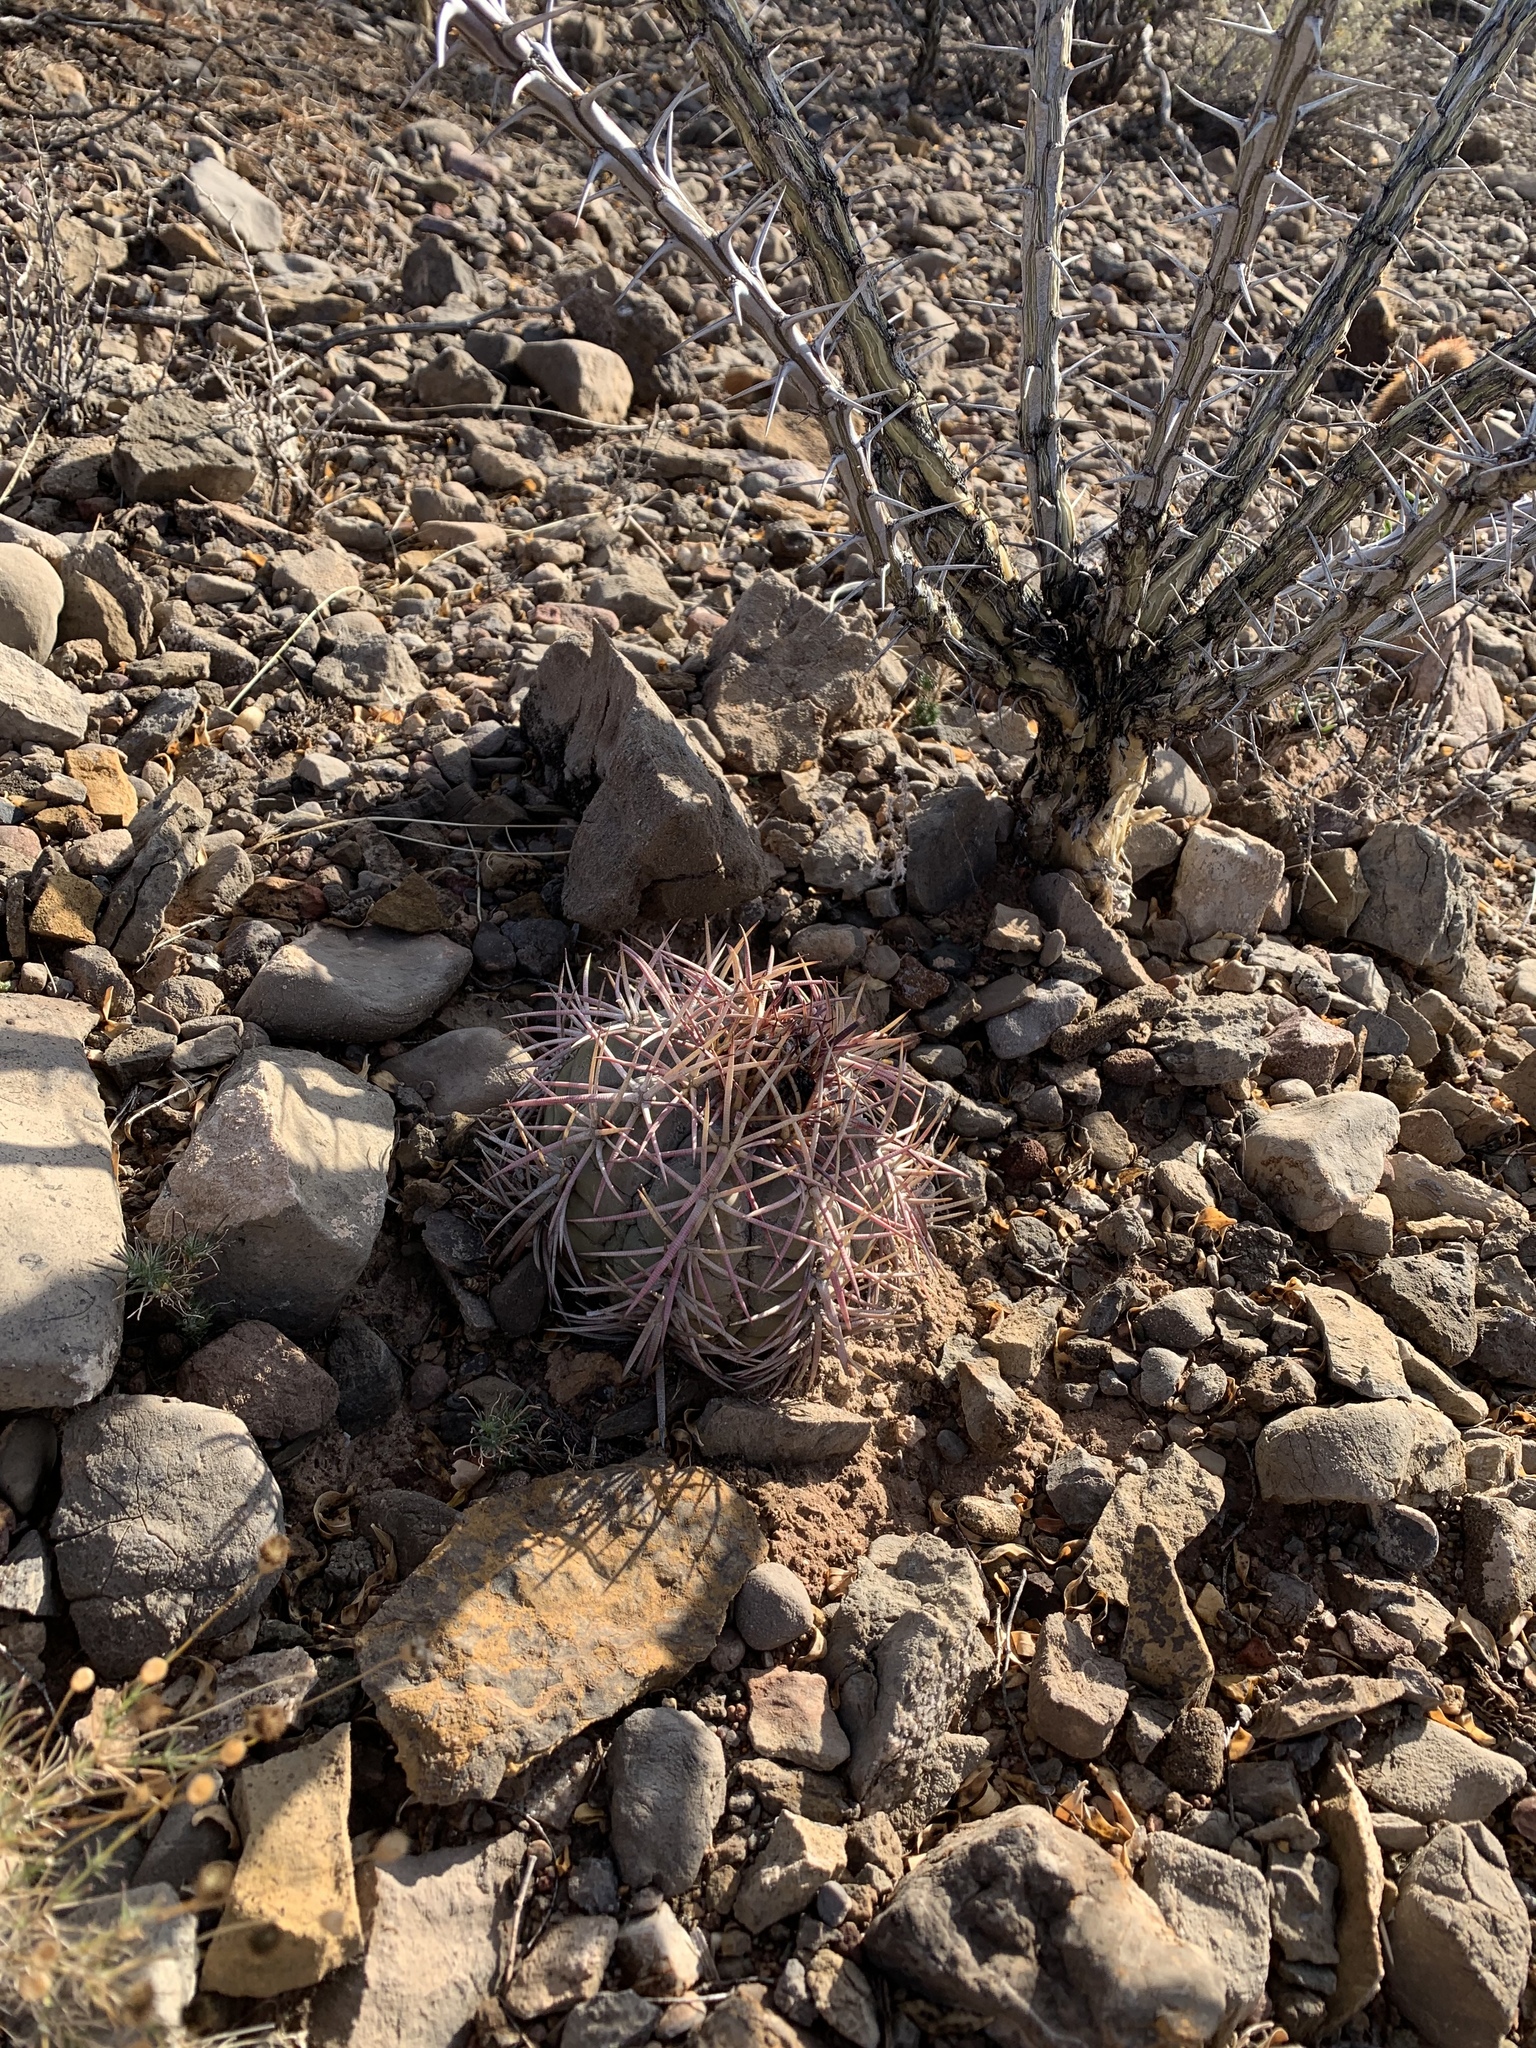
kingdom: Plantae
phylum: Tracheophyta
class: Magnoliopsida
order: Caryophyllales
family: Cactaceae
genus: Echinocactus
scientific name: Echinocactus horizonthalonius
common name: Devilshead
